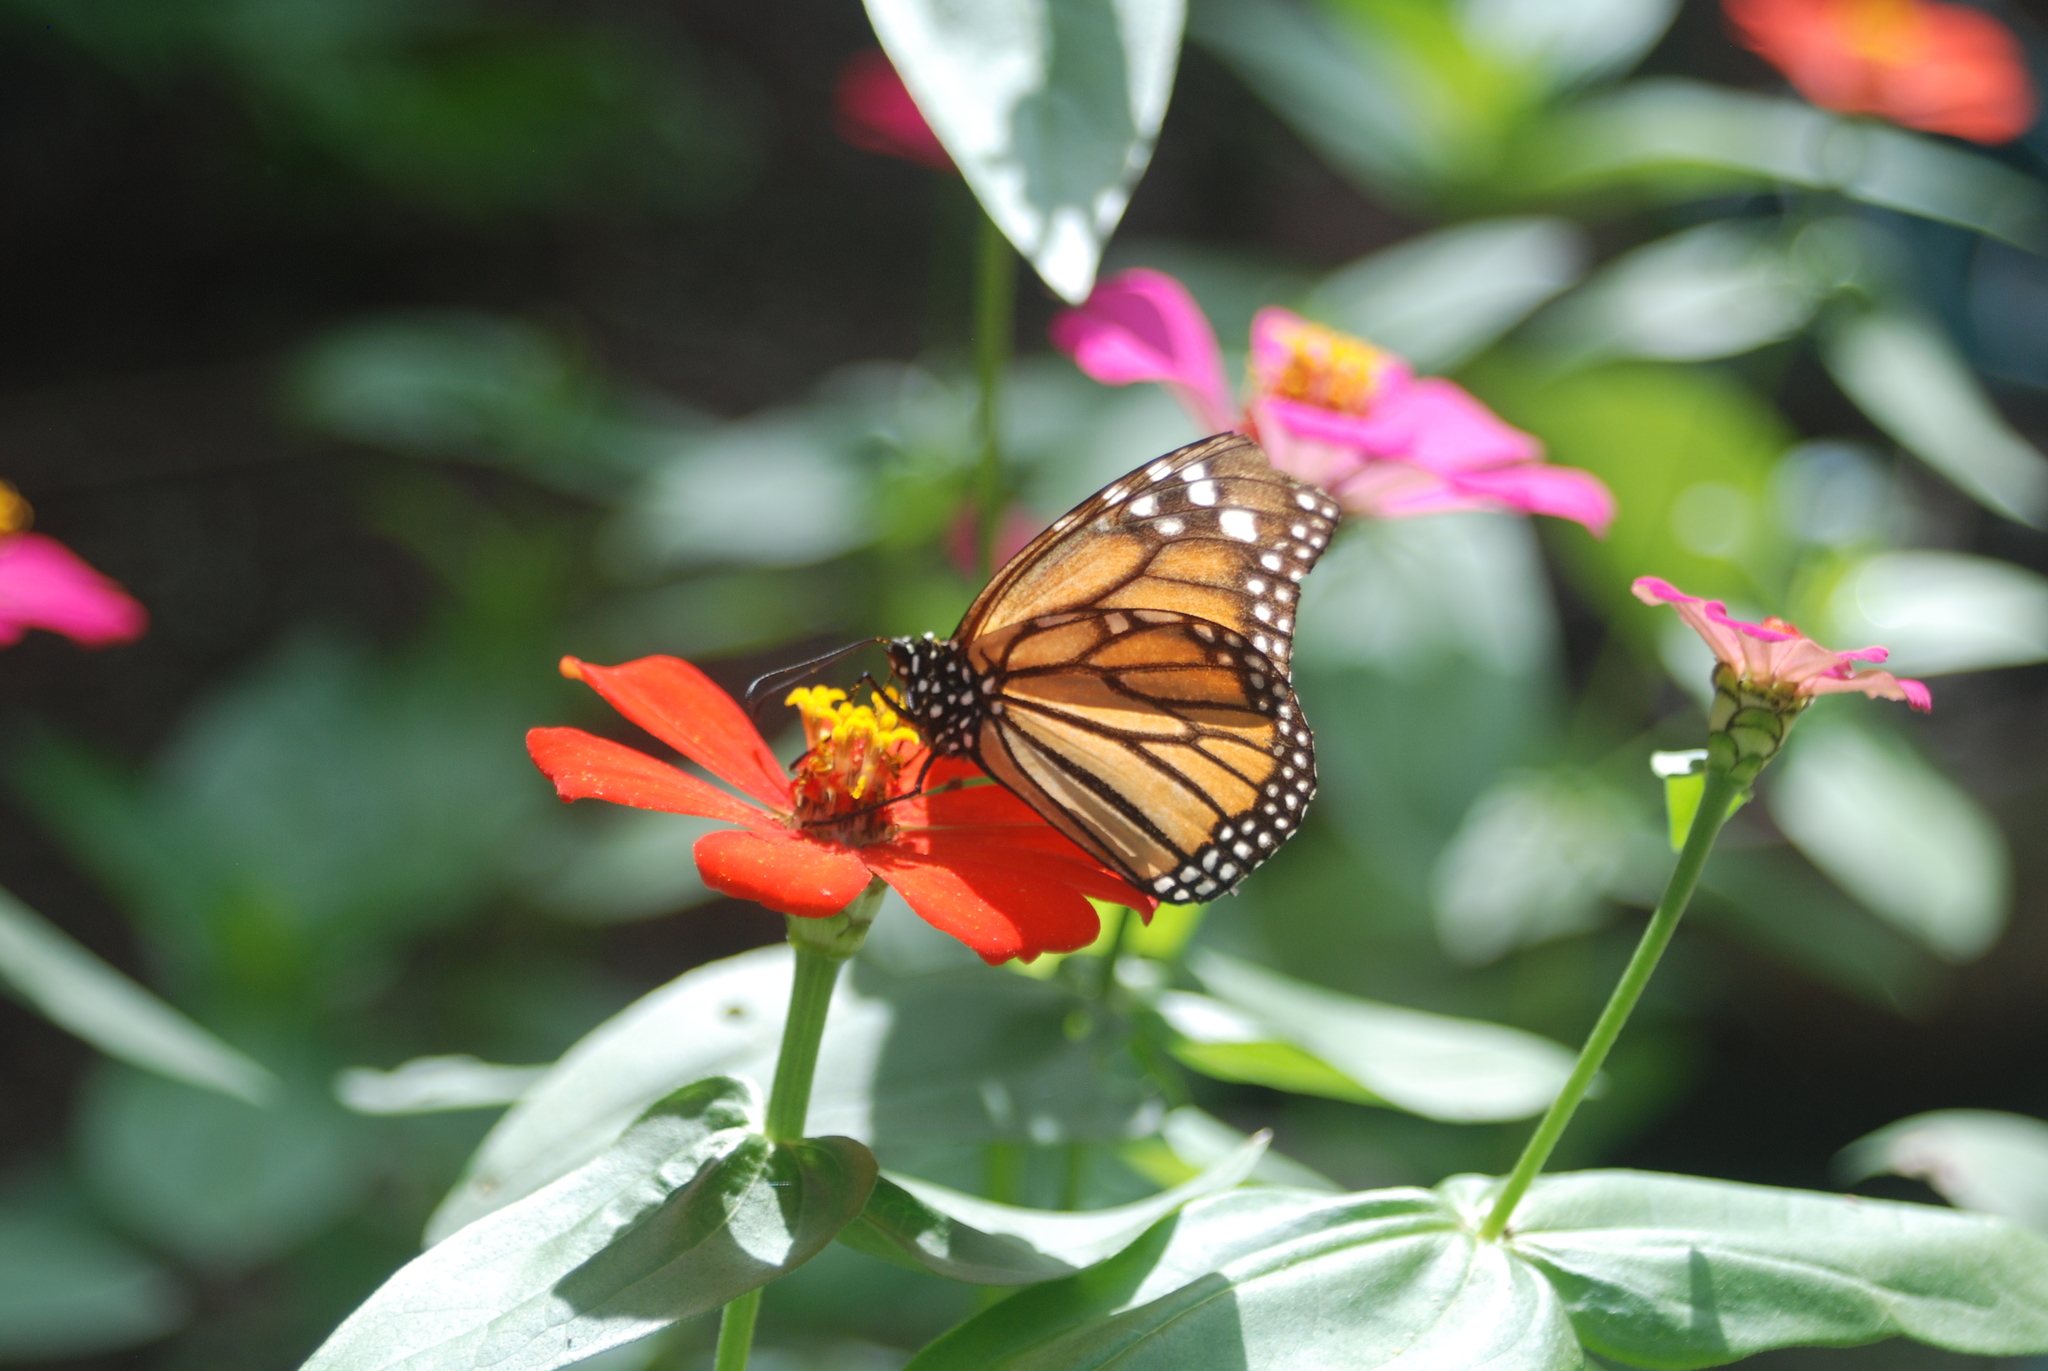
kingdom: Animalia
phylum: Arthropoda
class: Insecta
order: Lepidoptera
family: Nymphalidae
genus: Danaus
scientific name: Danaus plexippus
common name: Monarch
